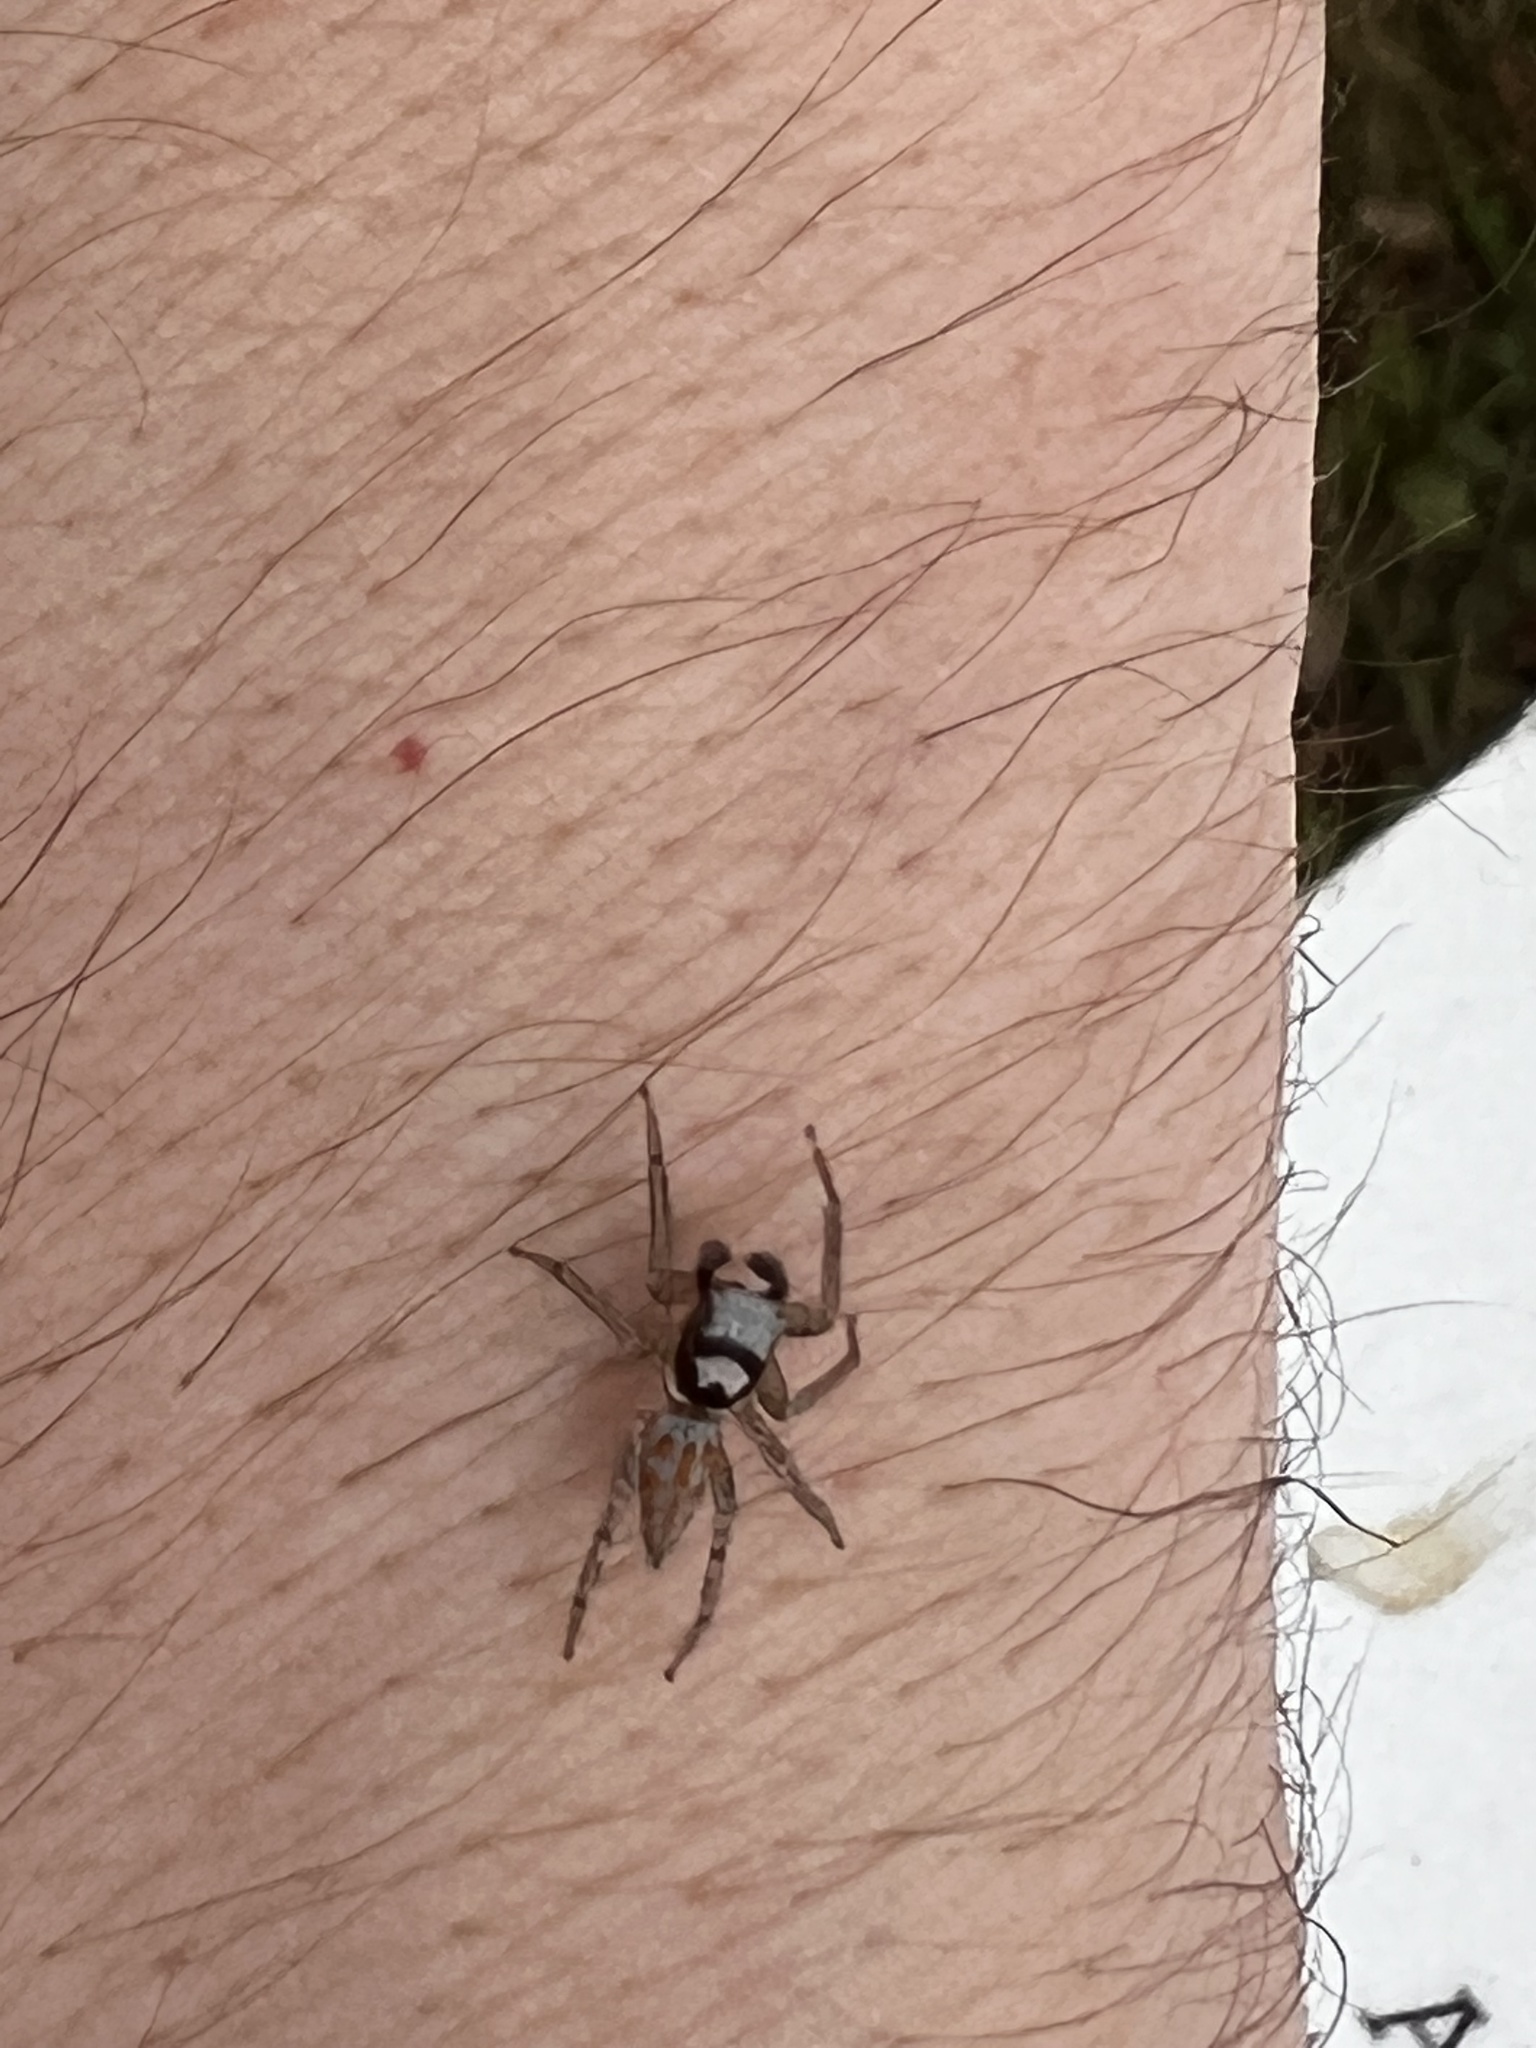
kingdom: Animalia
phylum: Arthropoda
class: Arachnida
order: Araneae
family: Salticidae
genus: Paramaevia
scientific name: Paramaevia poultoni
